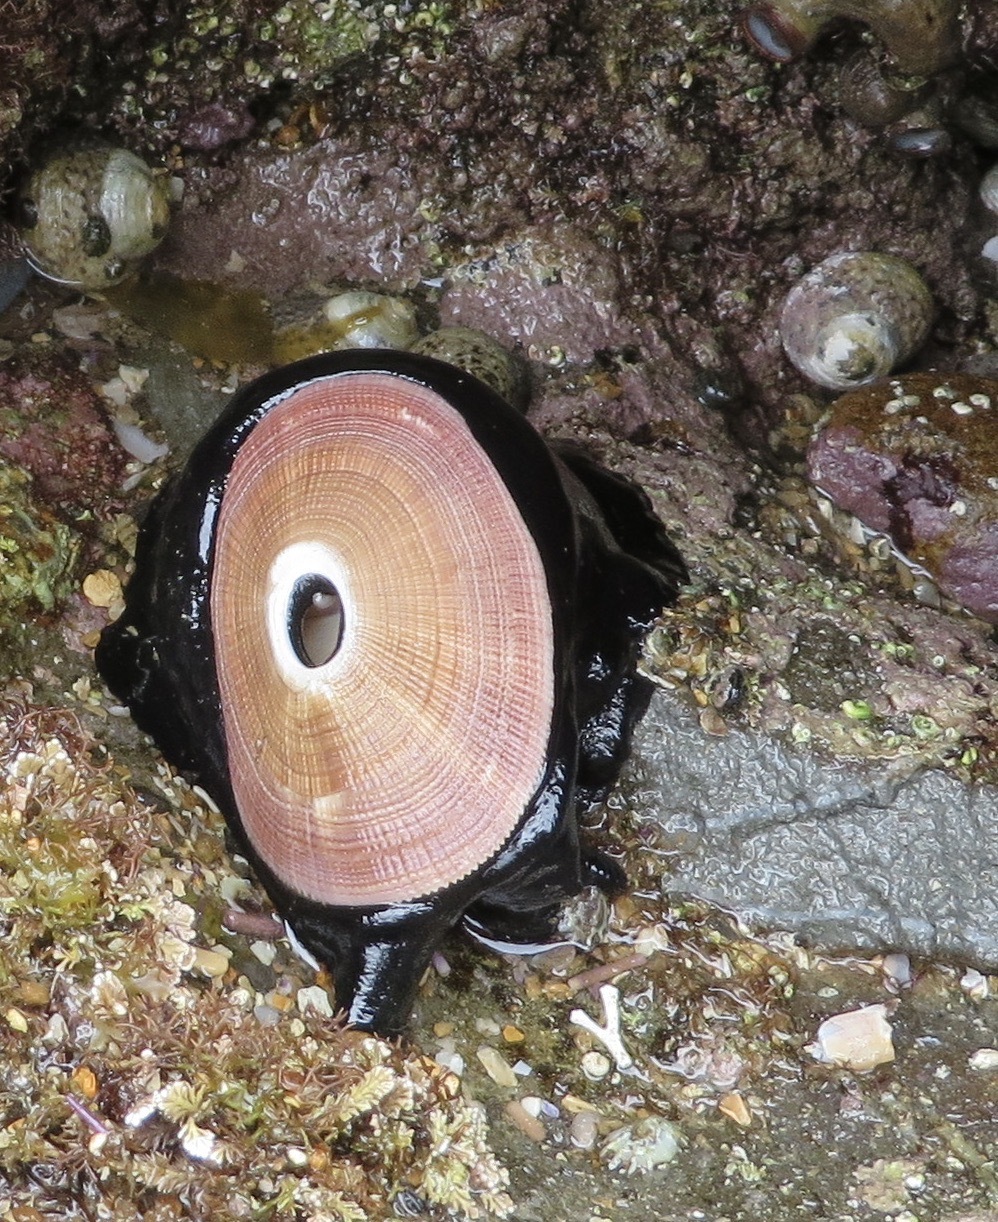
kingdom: Animalia
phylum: Mollusca
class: Gastropoda
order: Lepetellida
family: Fissurellidae
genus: Megathura
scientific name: Megathura crenulata
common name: Giant keyhole limpet
